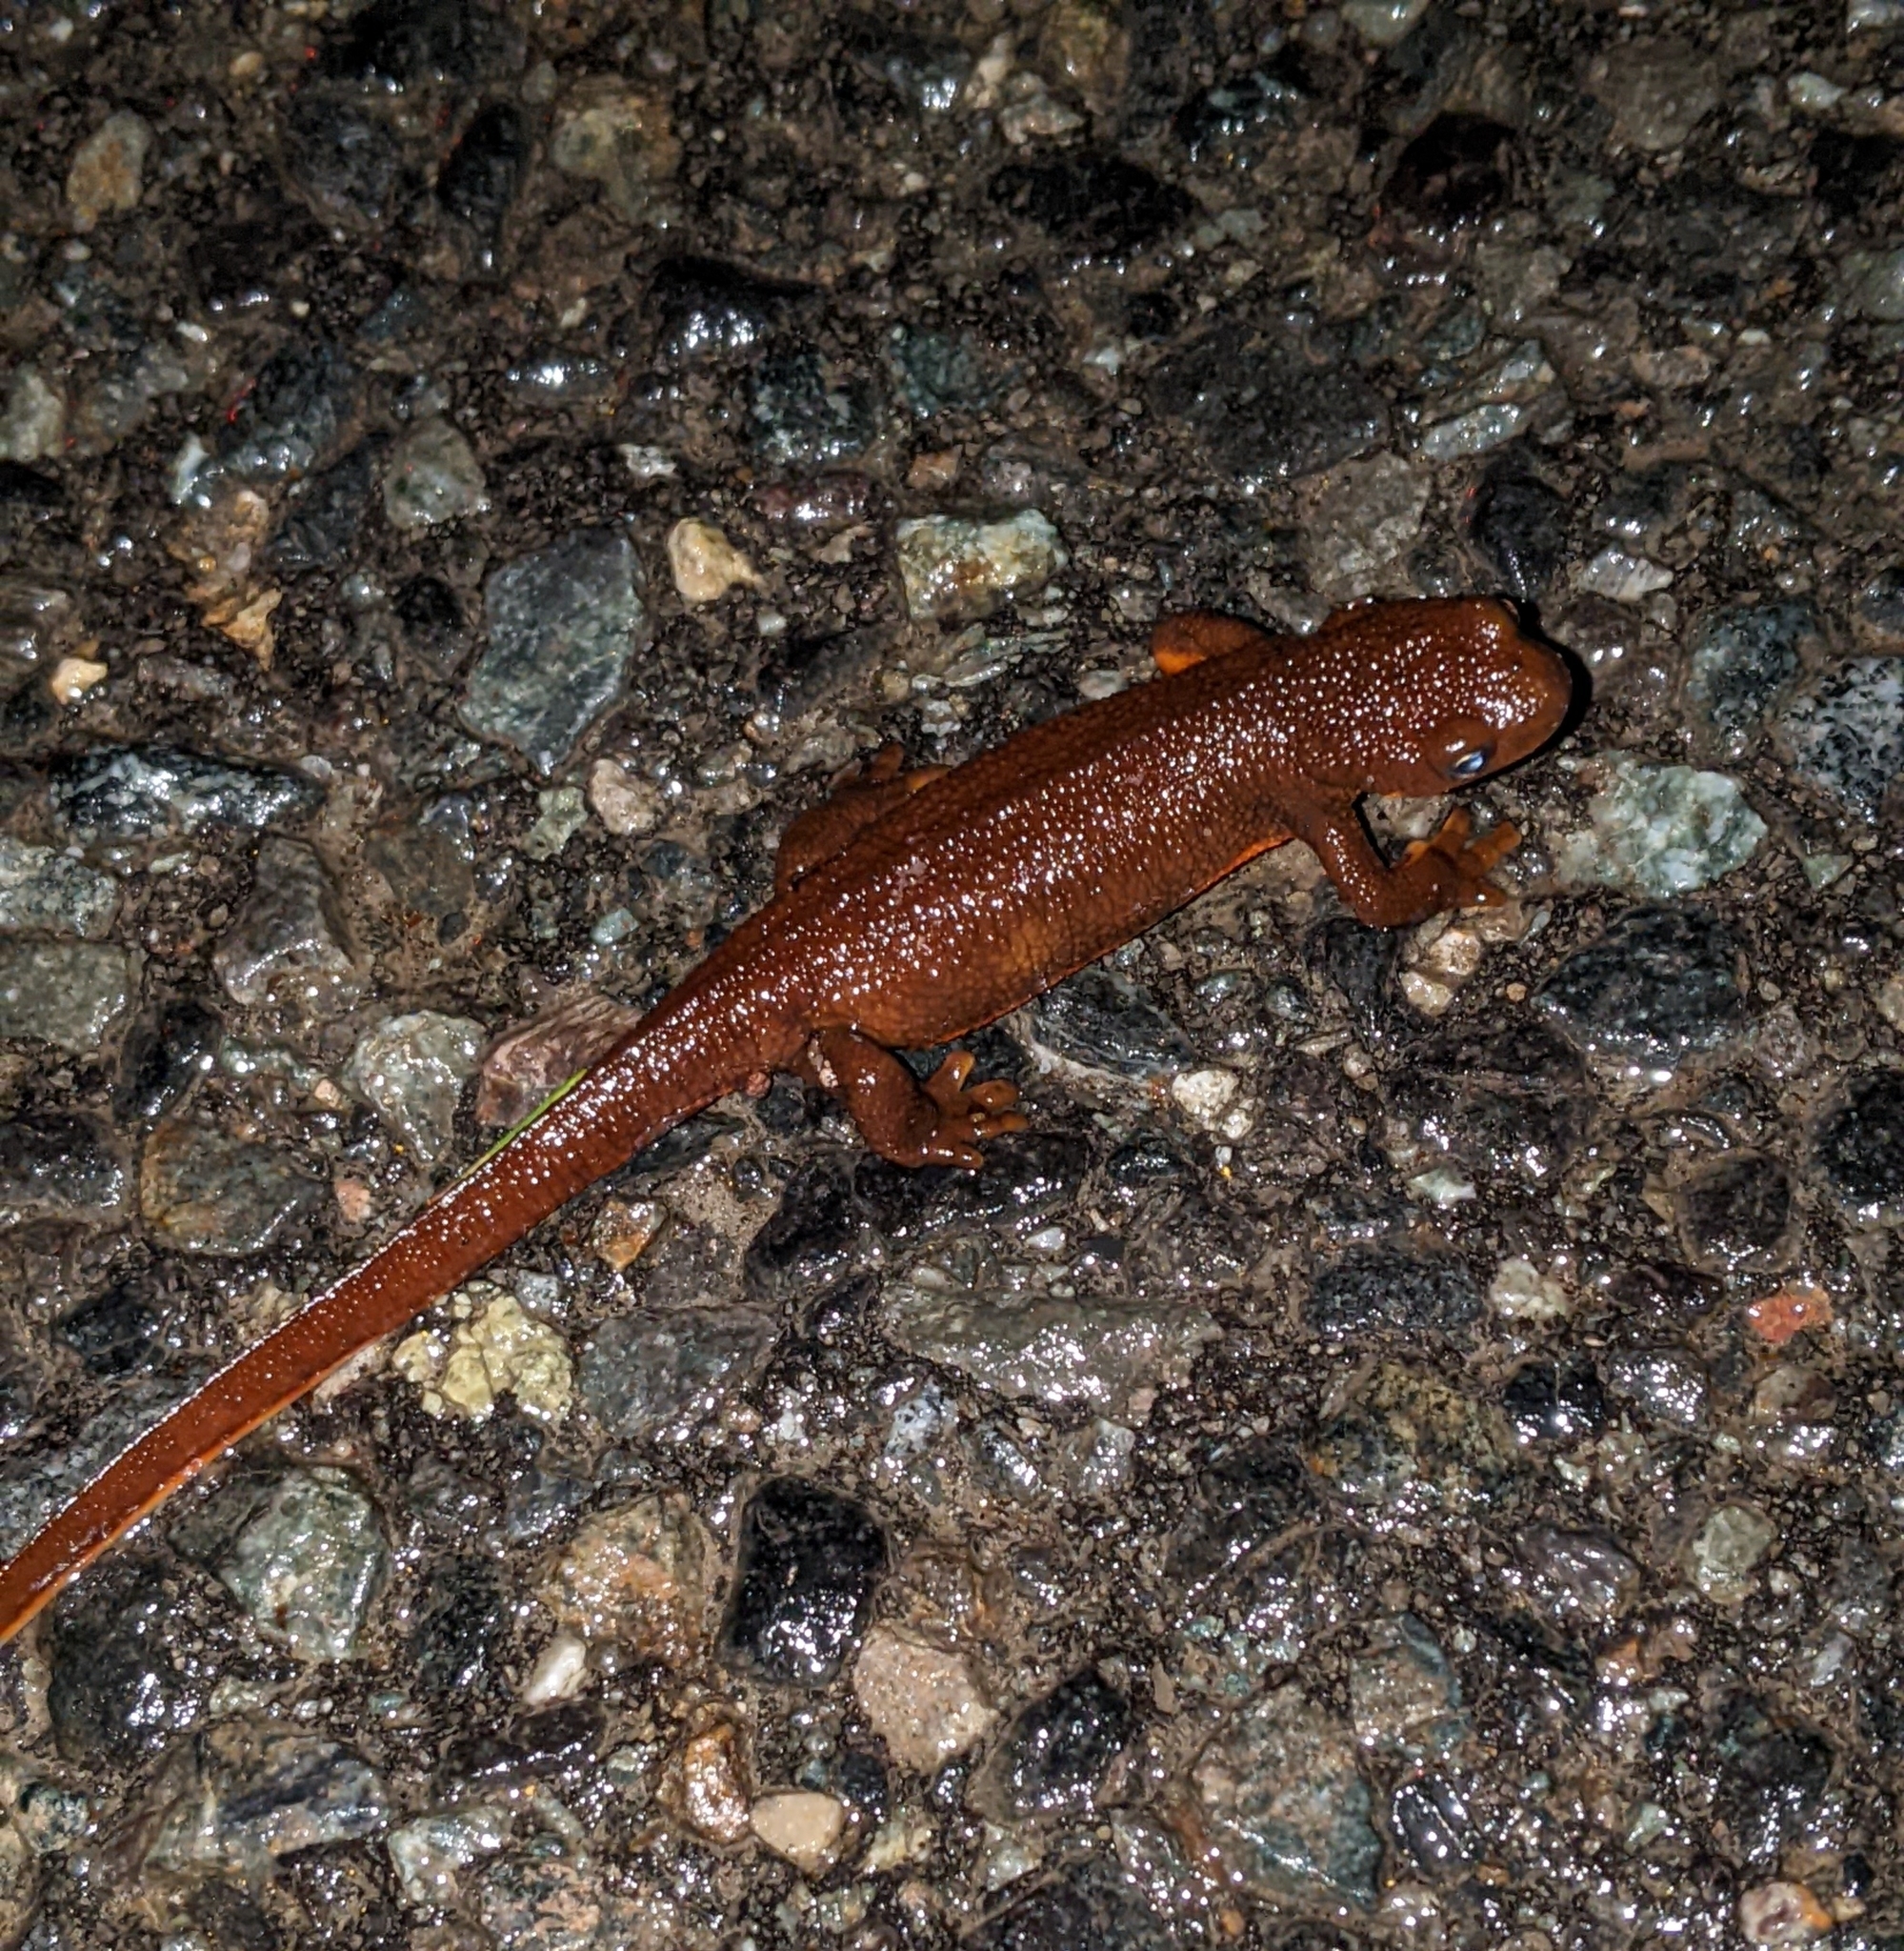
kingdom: Animalia
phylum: Chordata
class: Amphibia
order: Caudata
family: Salamandridae
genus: Taricha
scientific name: Taricha granulosa
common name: Roughskin newt
